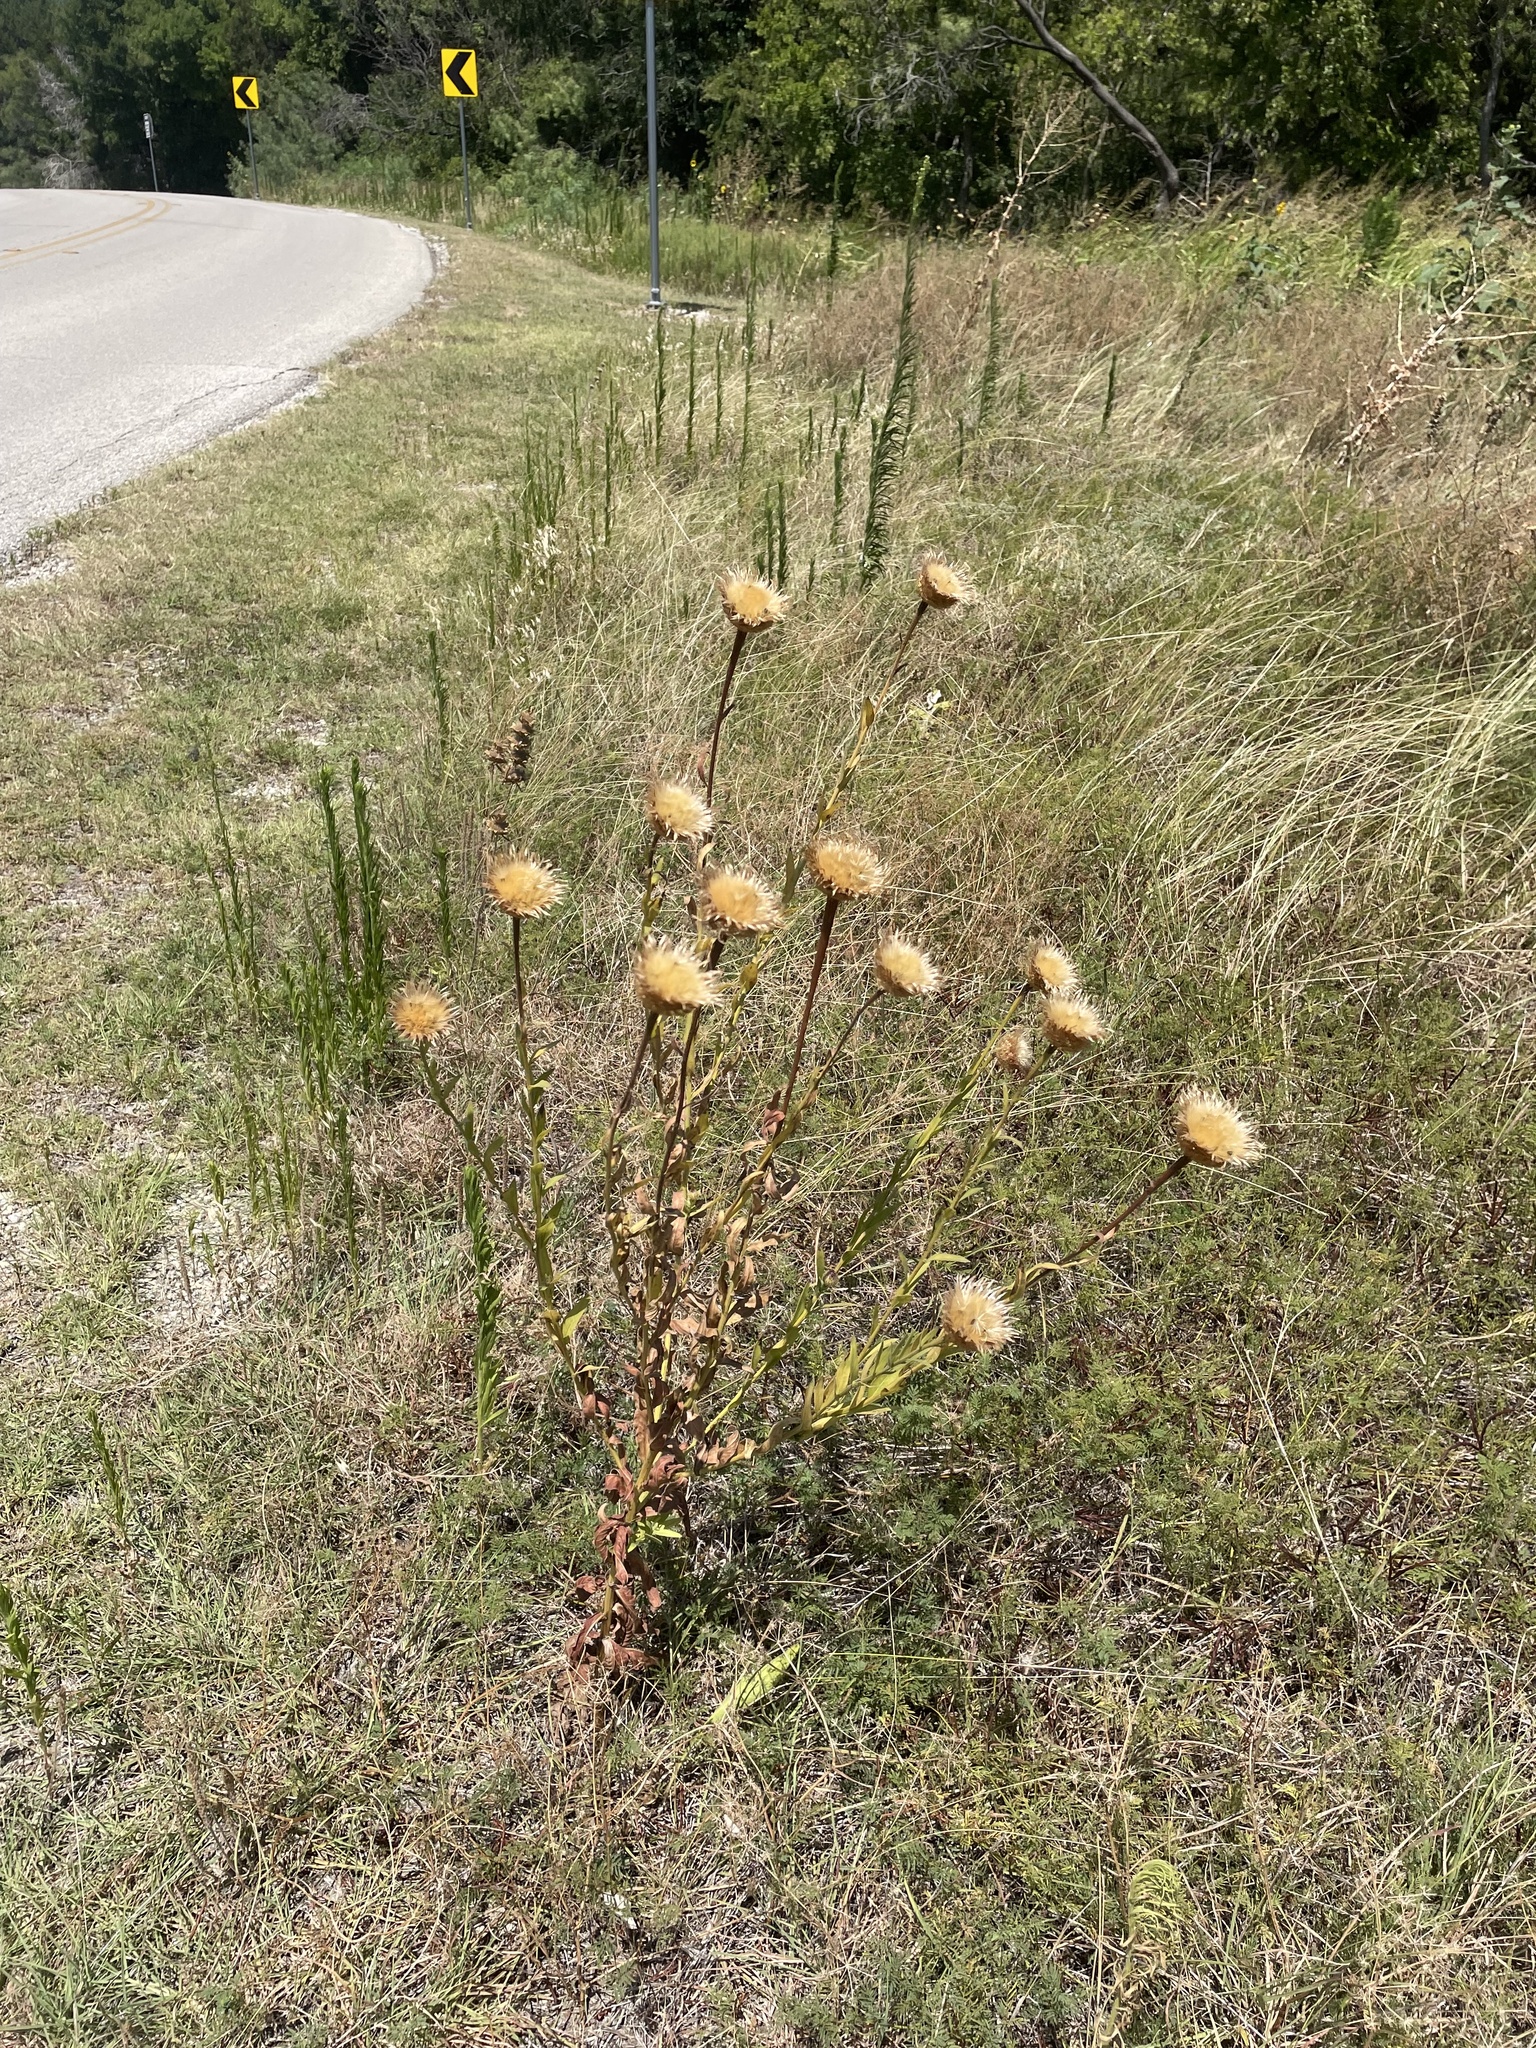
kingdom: Plantae
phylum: Tracheophyta
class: Magnoliopsida
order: Asterales
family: Asteraceae
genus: Plectocephalus
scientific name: Plectocephalus americanus
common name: American basket-flower
